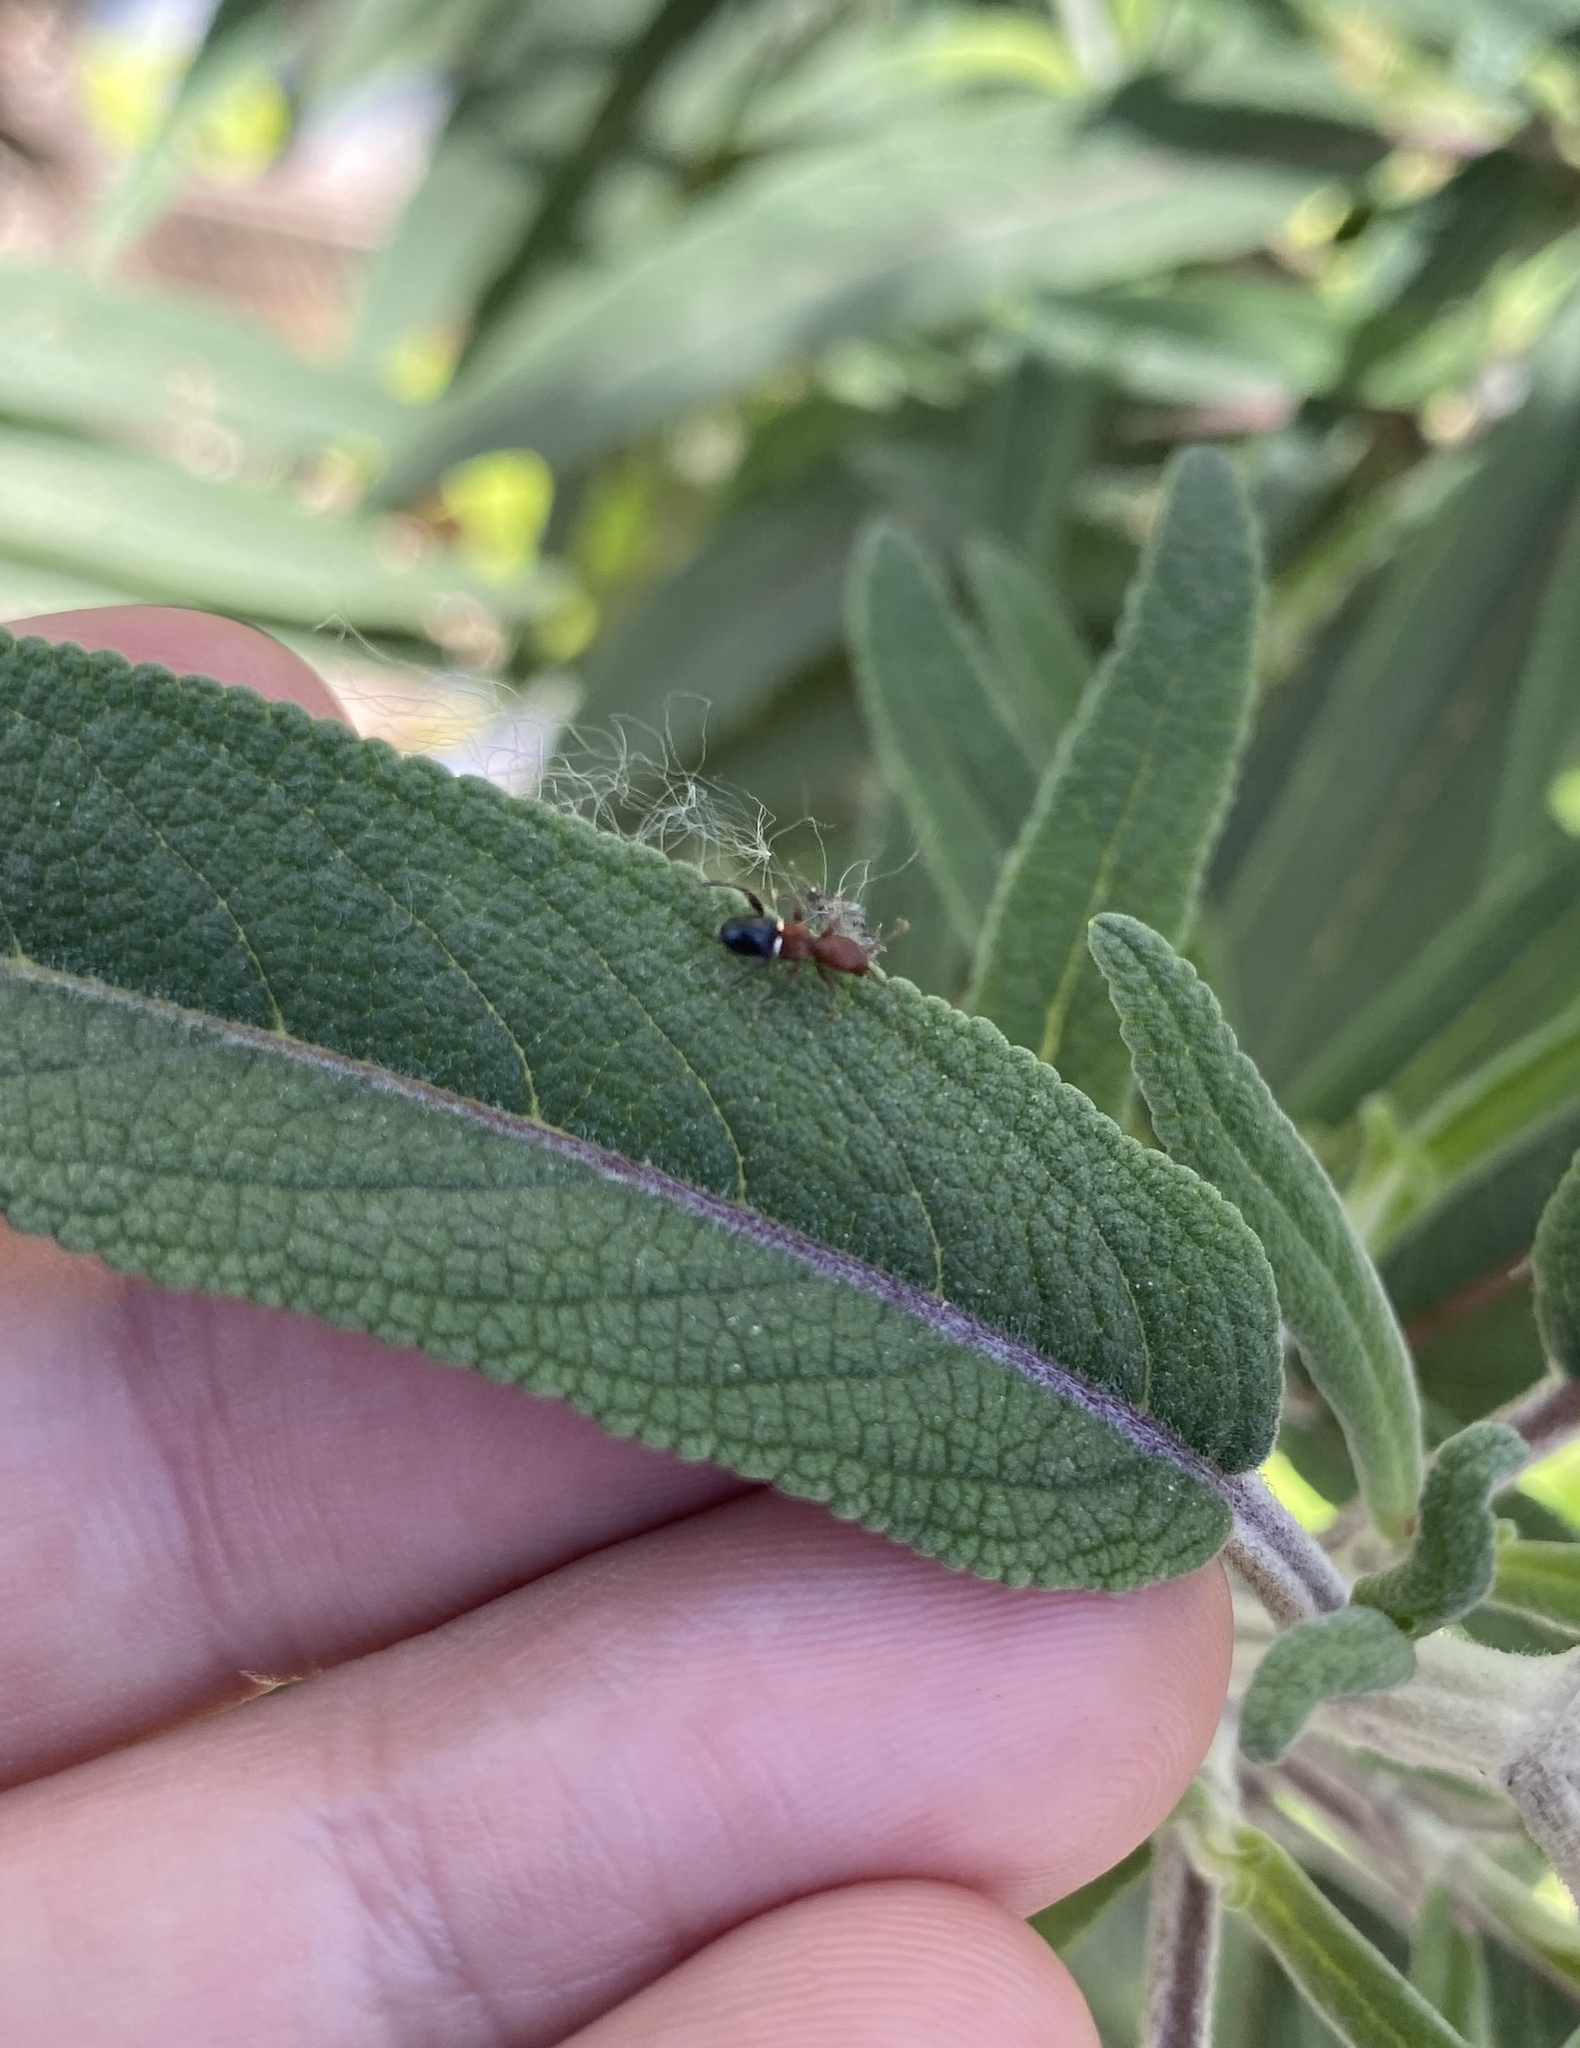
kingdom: Animalia
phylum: Arthropoda
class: Insecta
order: Coleoptera
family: Cerambycidae
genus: Euderces
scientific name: Euderces reichei
